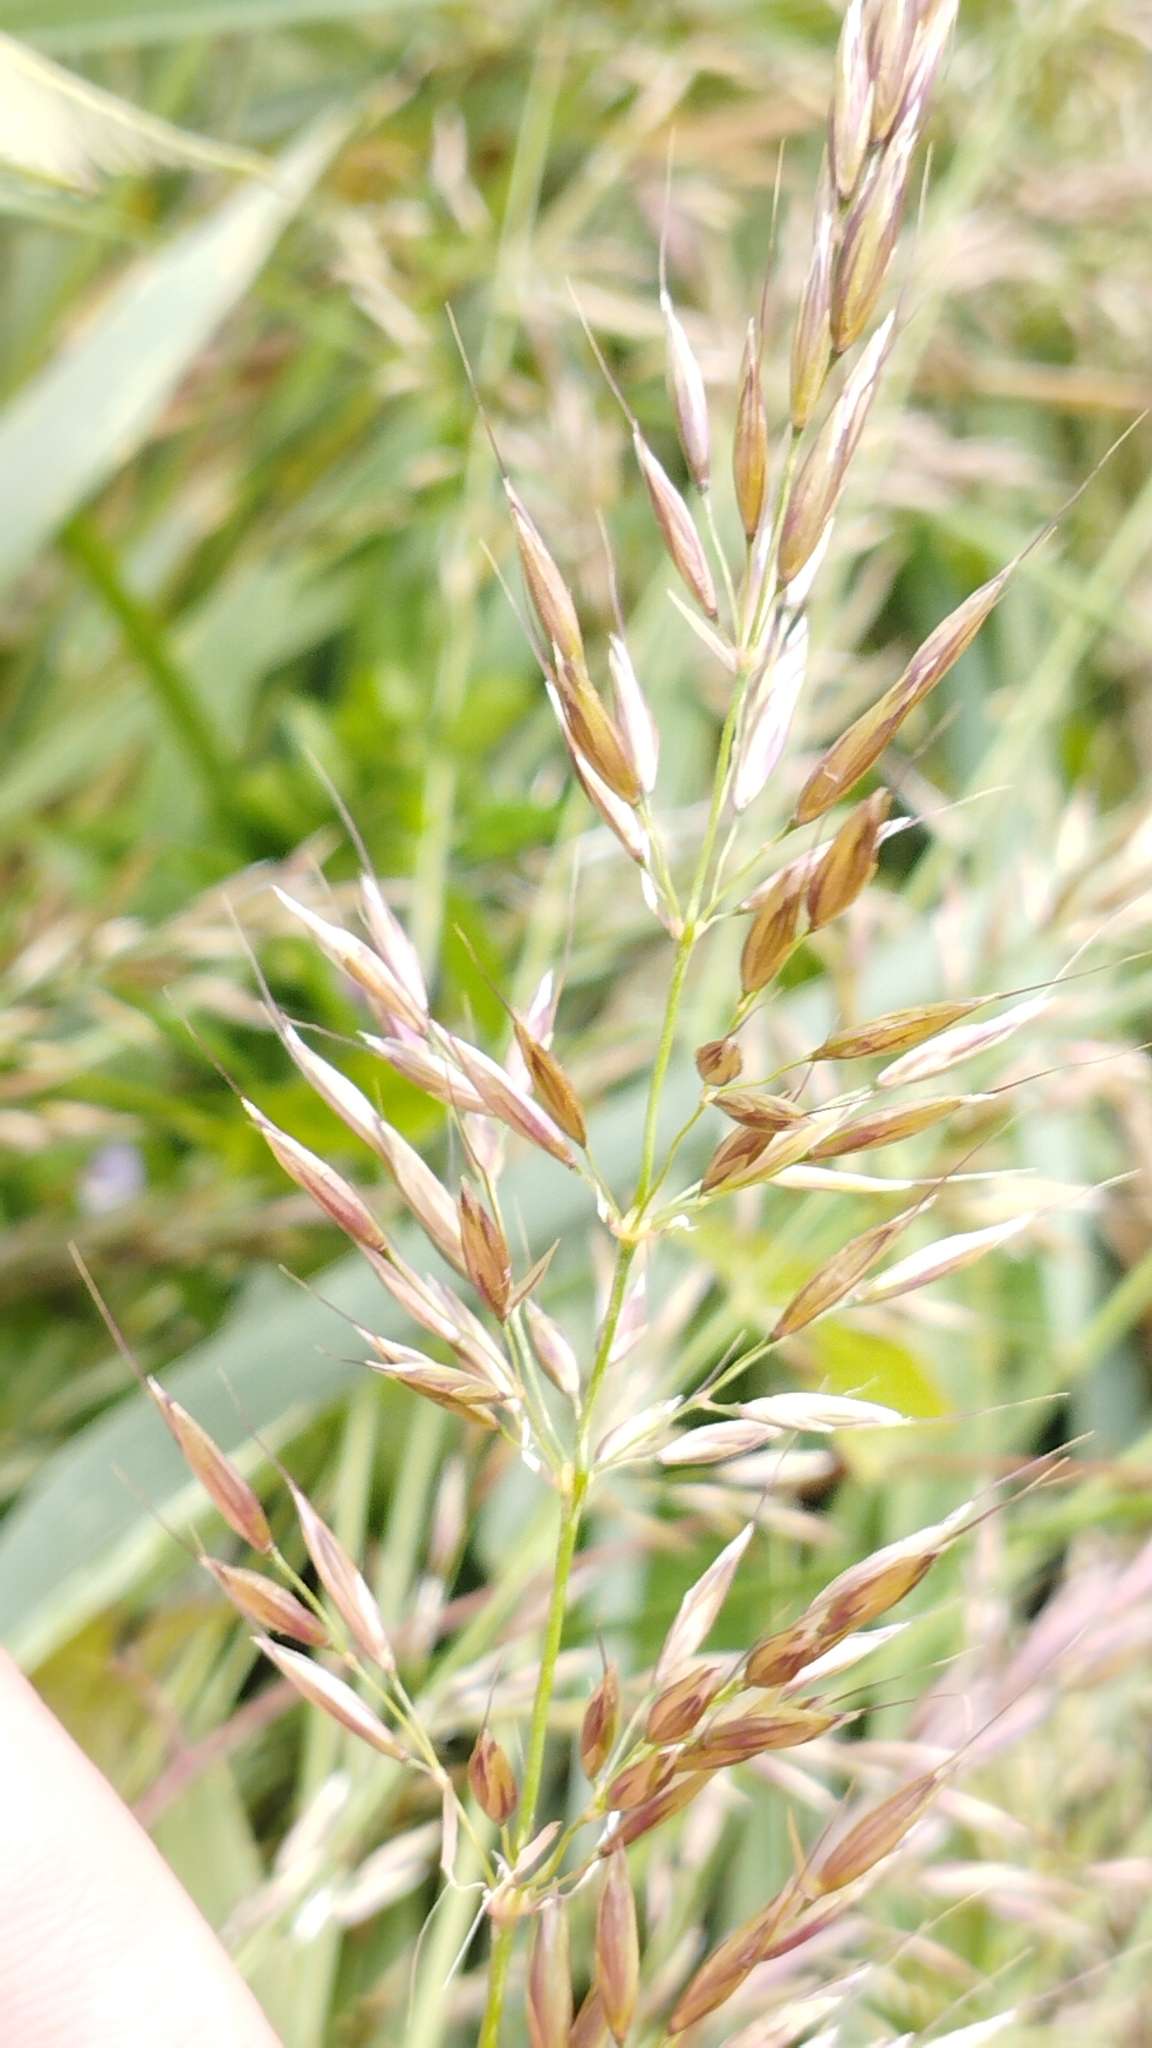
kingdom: Plantae
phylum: Tracheophyta
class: Liliopsida
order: Poales
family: Poaceae
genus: Arrhenatherum
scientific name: Arrhenatherum elatius
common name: Tall oatgrass
